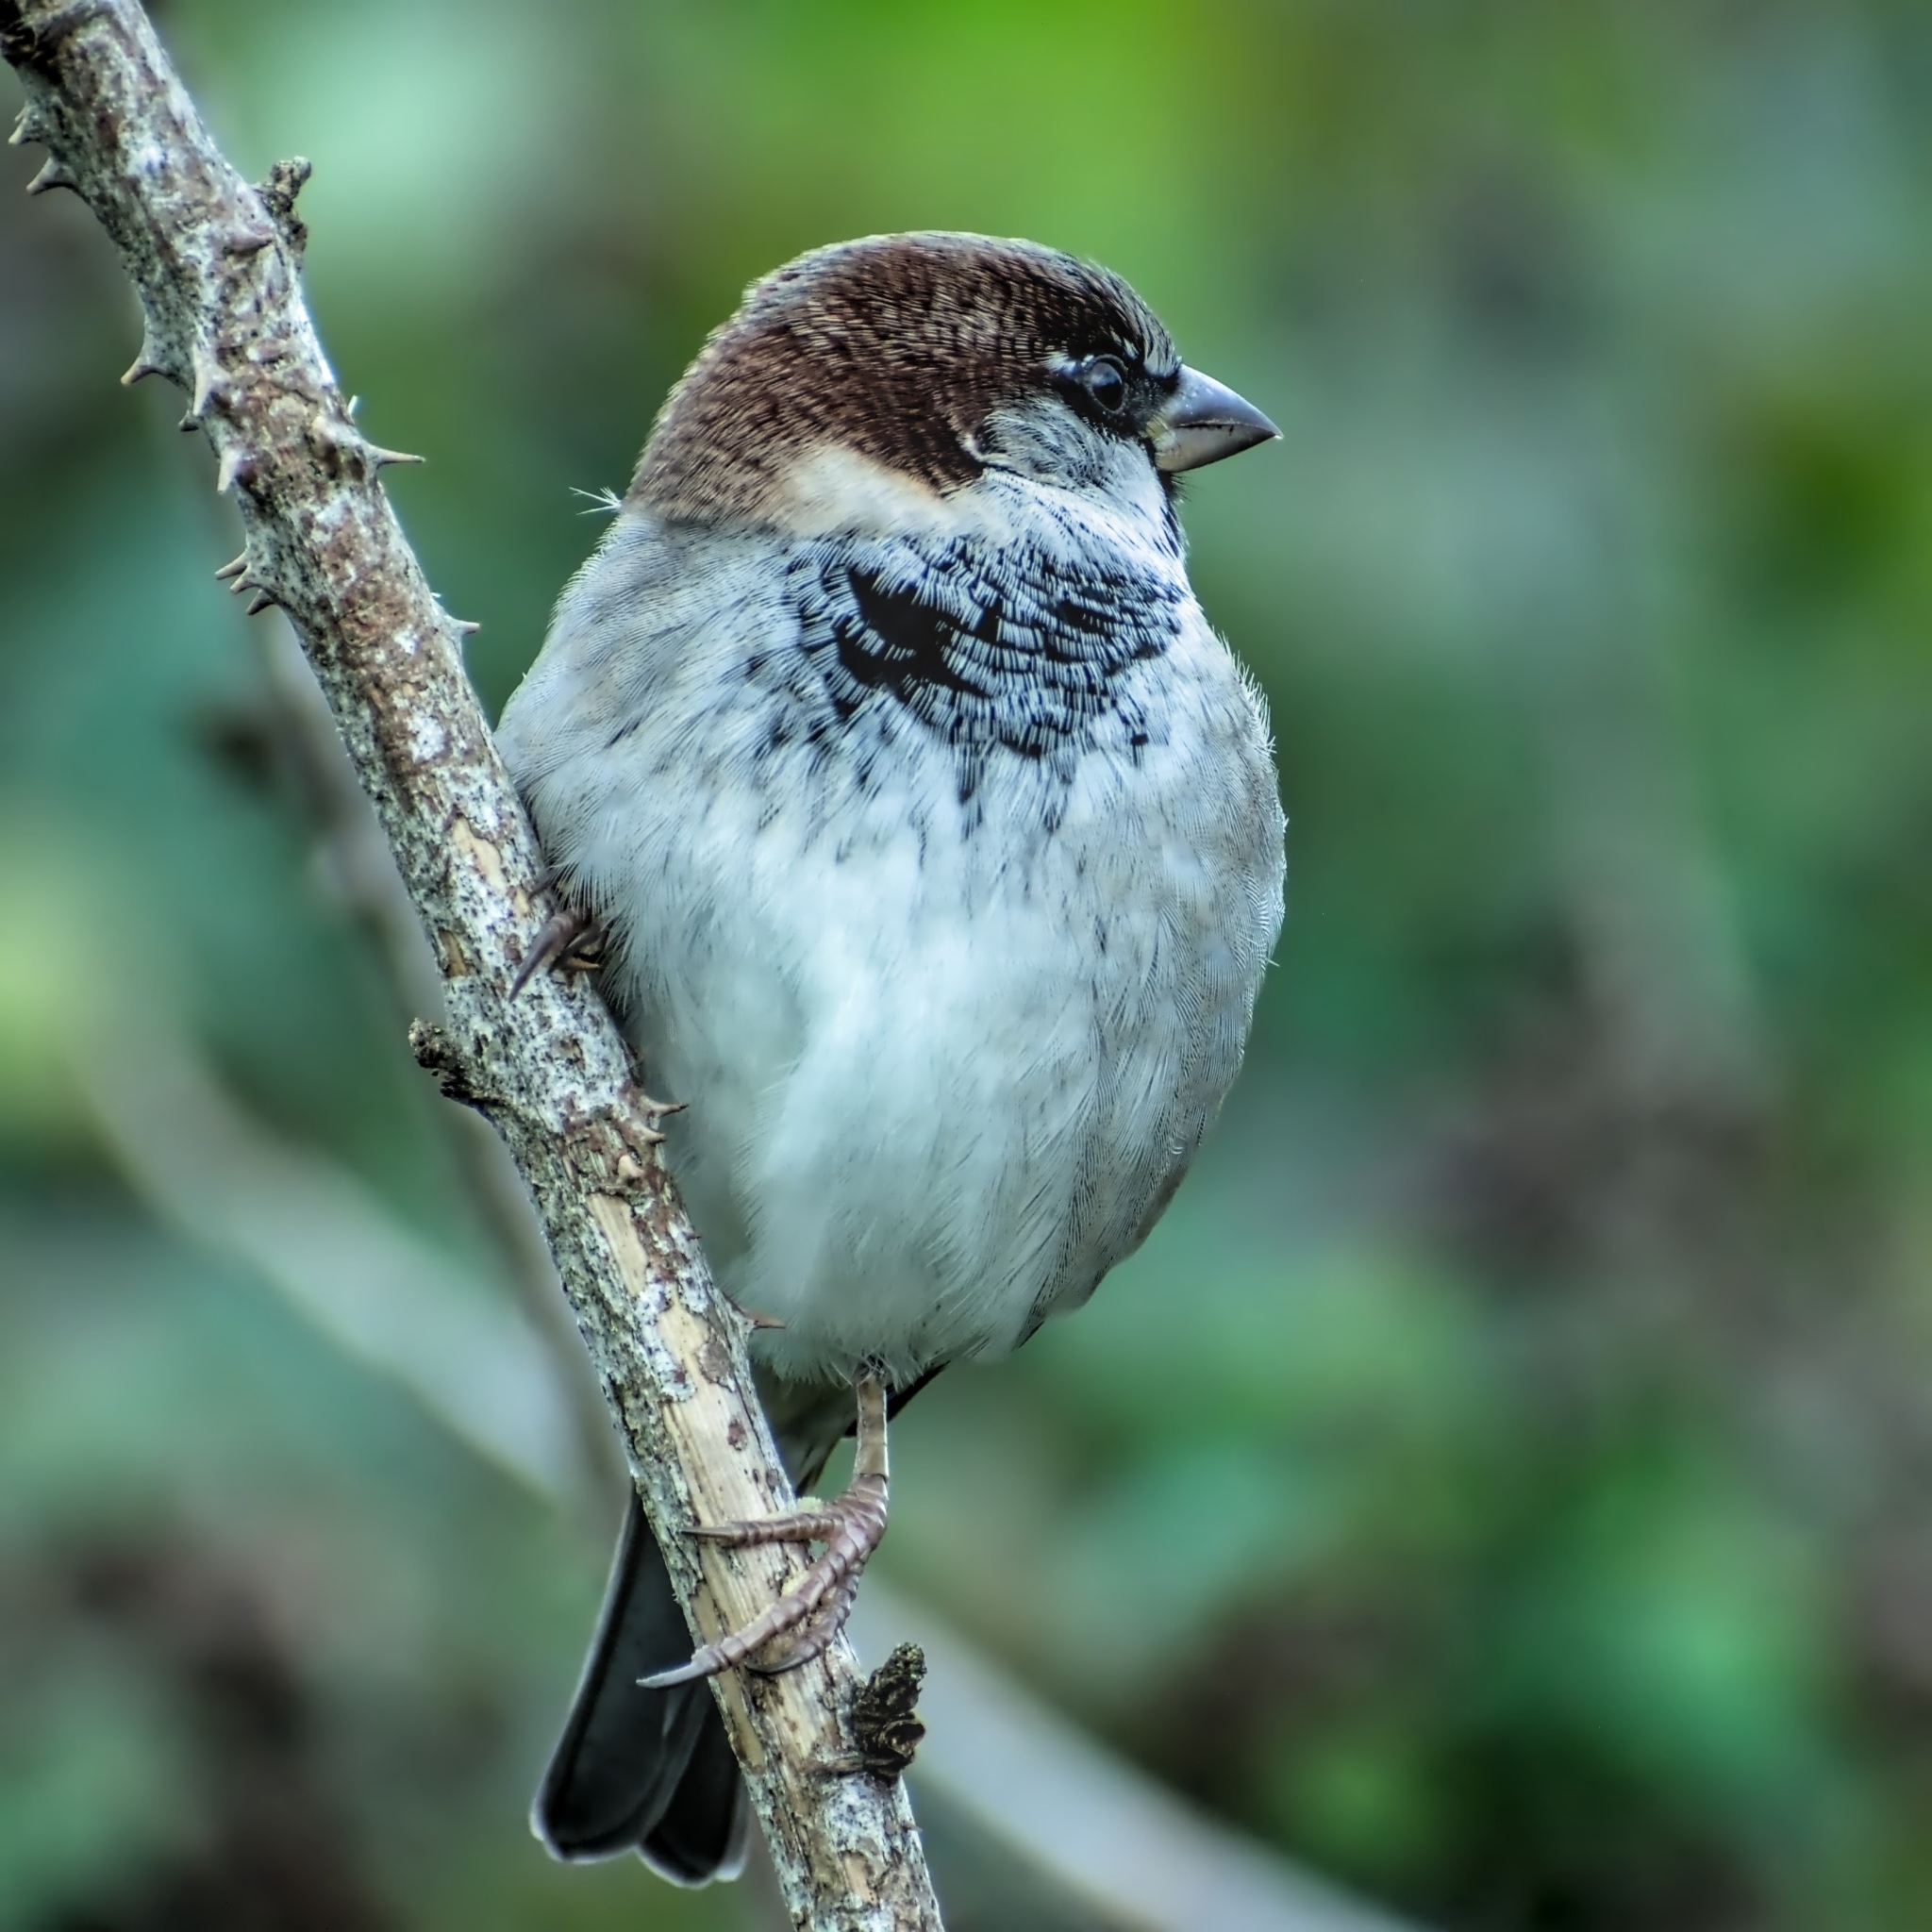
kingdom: Animalia
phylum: Chordata
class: Aves
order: Passeriformes
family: Passeridae
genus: Passer
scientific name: Passer domesticus
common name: House sparrow
